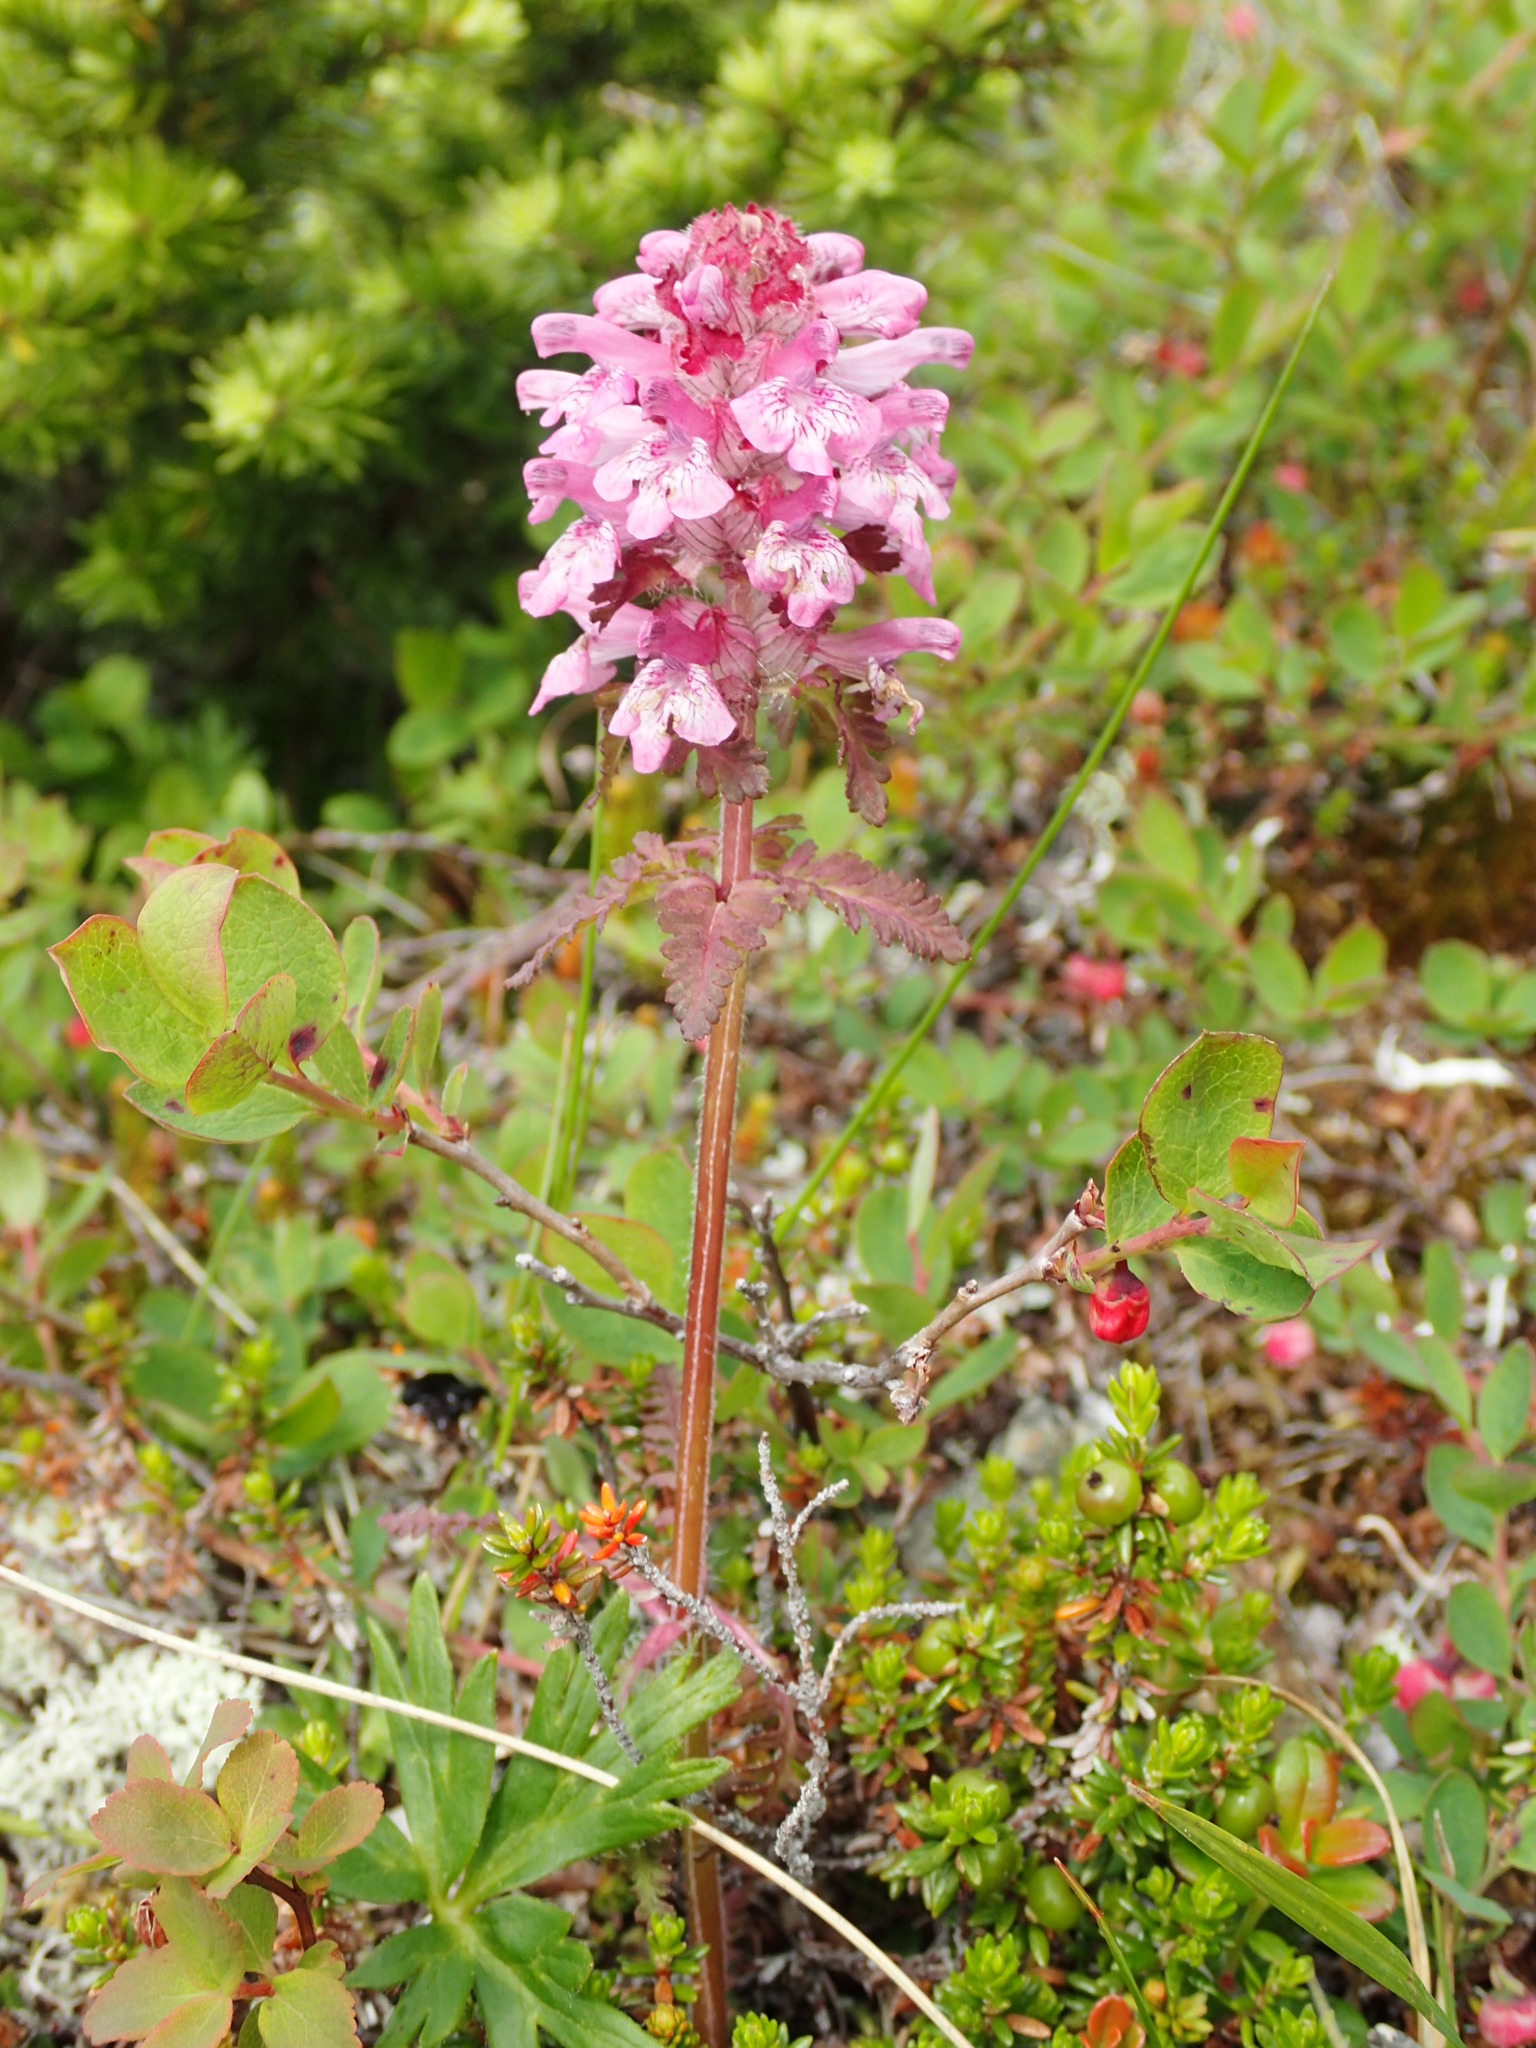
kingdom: Plantae
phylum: Tracheophyta
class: Magnoliopsida
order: Lamiales
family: Orobanchaceae
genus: Pedicularis
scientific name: Pedicularis verticillata
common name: Whorled lousewort
